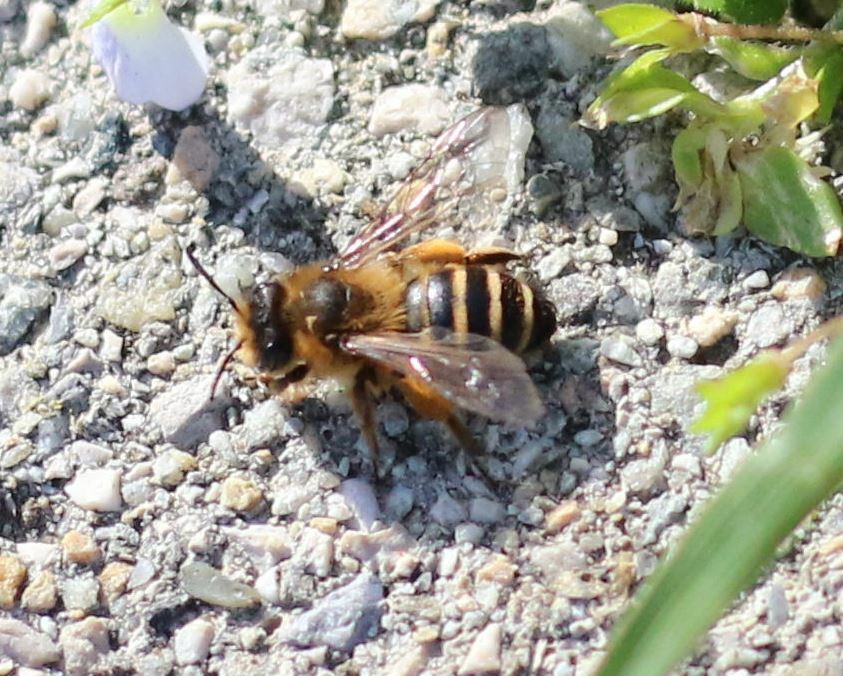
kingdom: Animalia
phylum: Arthropoda
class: Insecta
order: Hymenoptera
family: Andrenidae
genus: Andrena
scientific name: Andrena flavipes
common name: Yellow-legged mining bee
